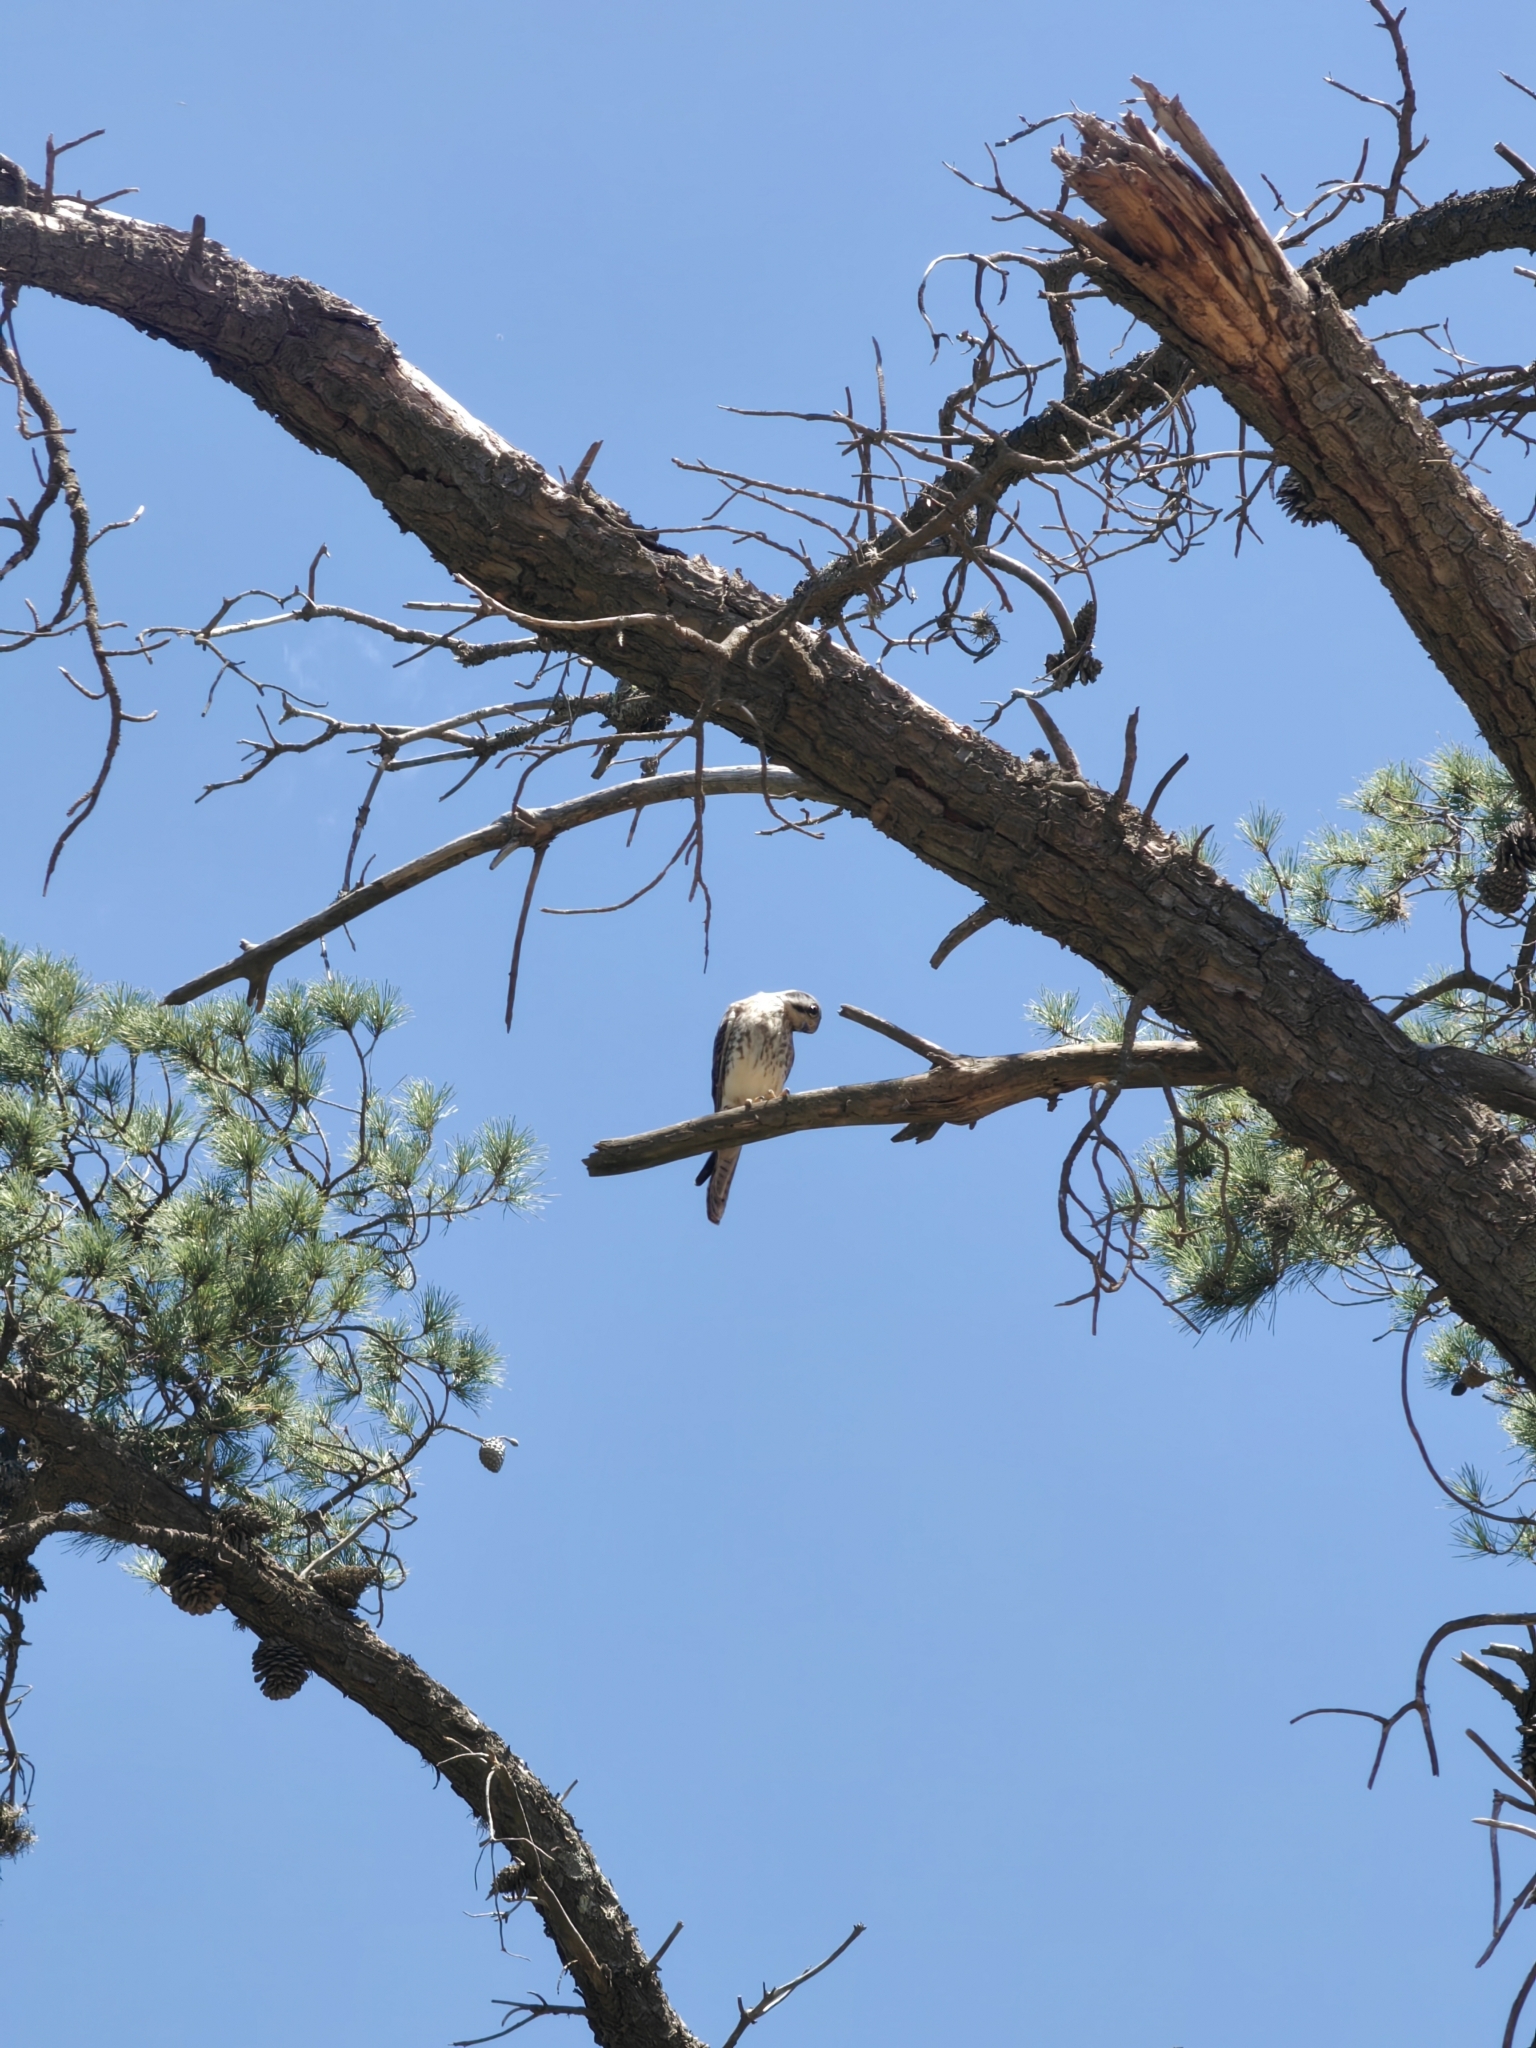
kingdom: Animalia
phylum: Chordata
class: Aves
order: Falconiformes
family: Falconidae
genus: Falco
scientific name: Falco sparverius
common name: American kestrel
